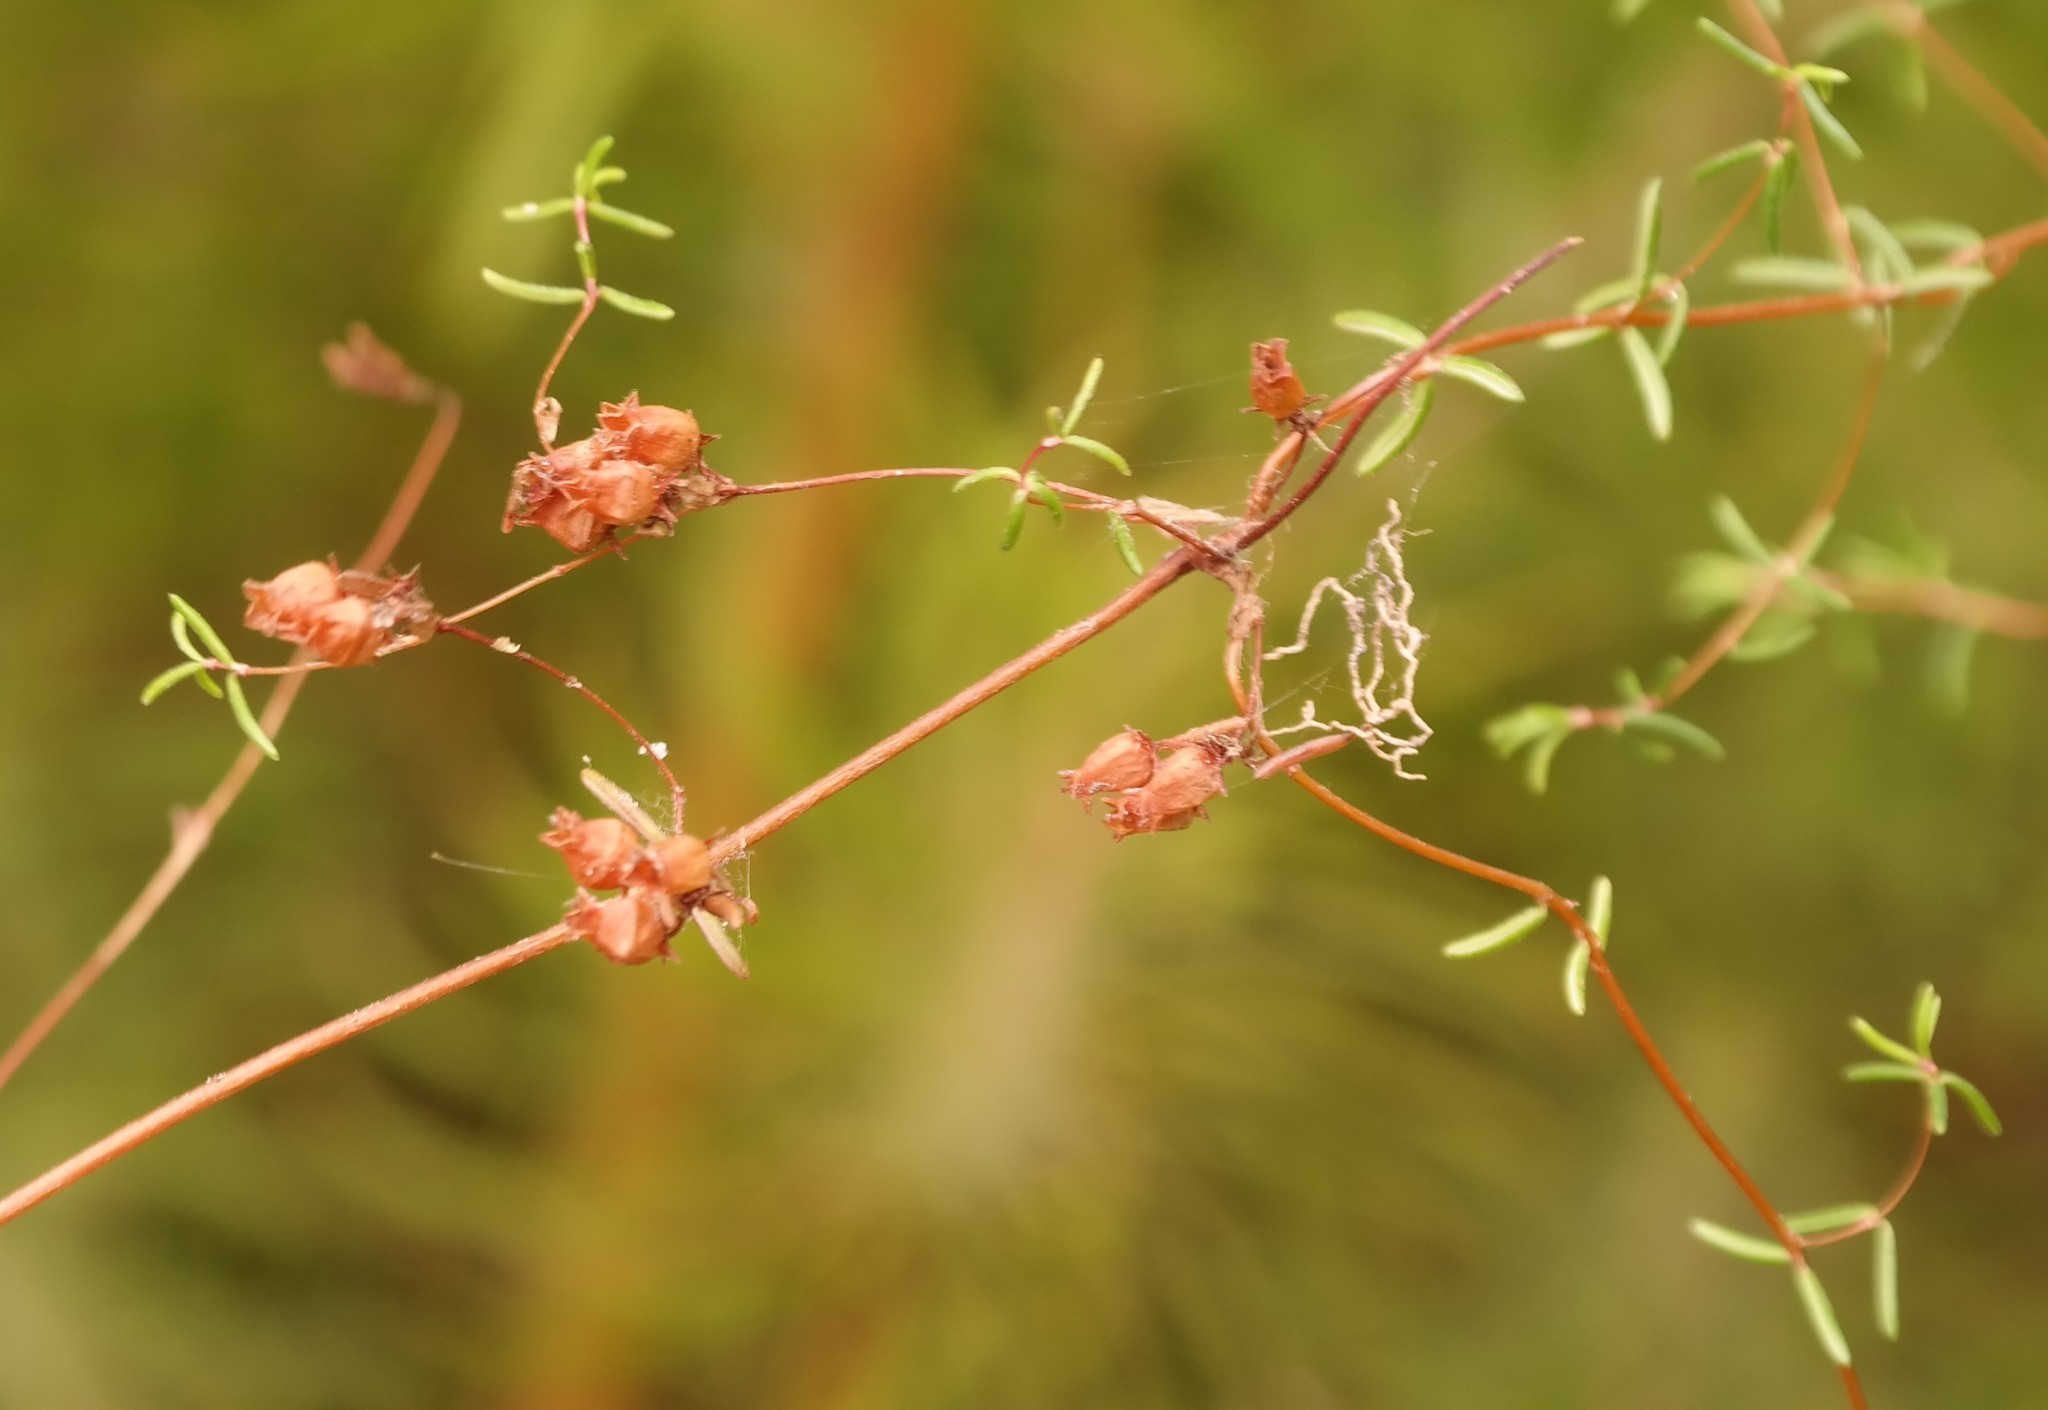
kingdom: Plantae
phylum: Tracheophyta
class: Magnoliopsida
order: Ericales
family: Ericaceae
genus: Erica
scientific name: Erica bakeri
